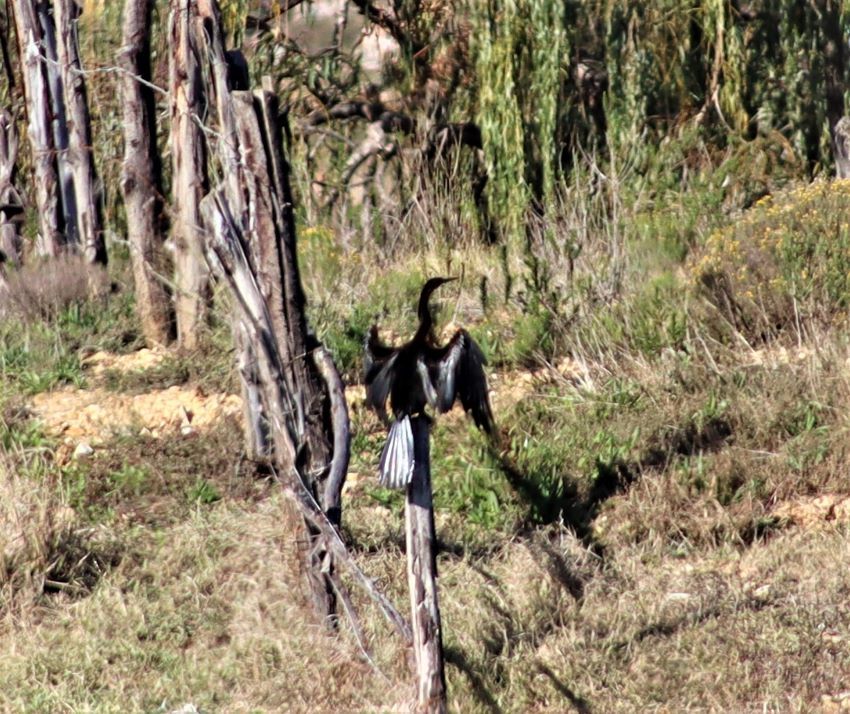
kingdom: Animalia
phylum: Chordata
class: Aves
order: Suliformes
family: Anhingidae
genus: Anhinga
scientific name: Anhinga rufa
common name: African darter
